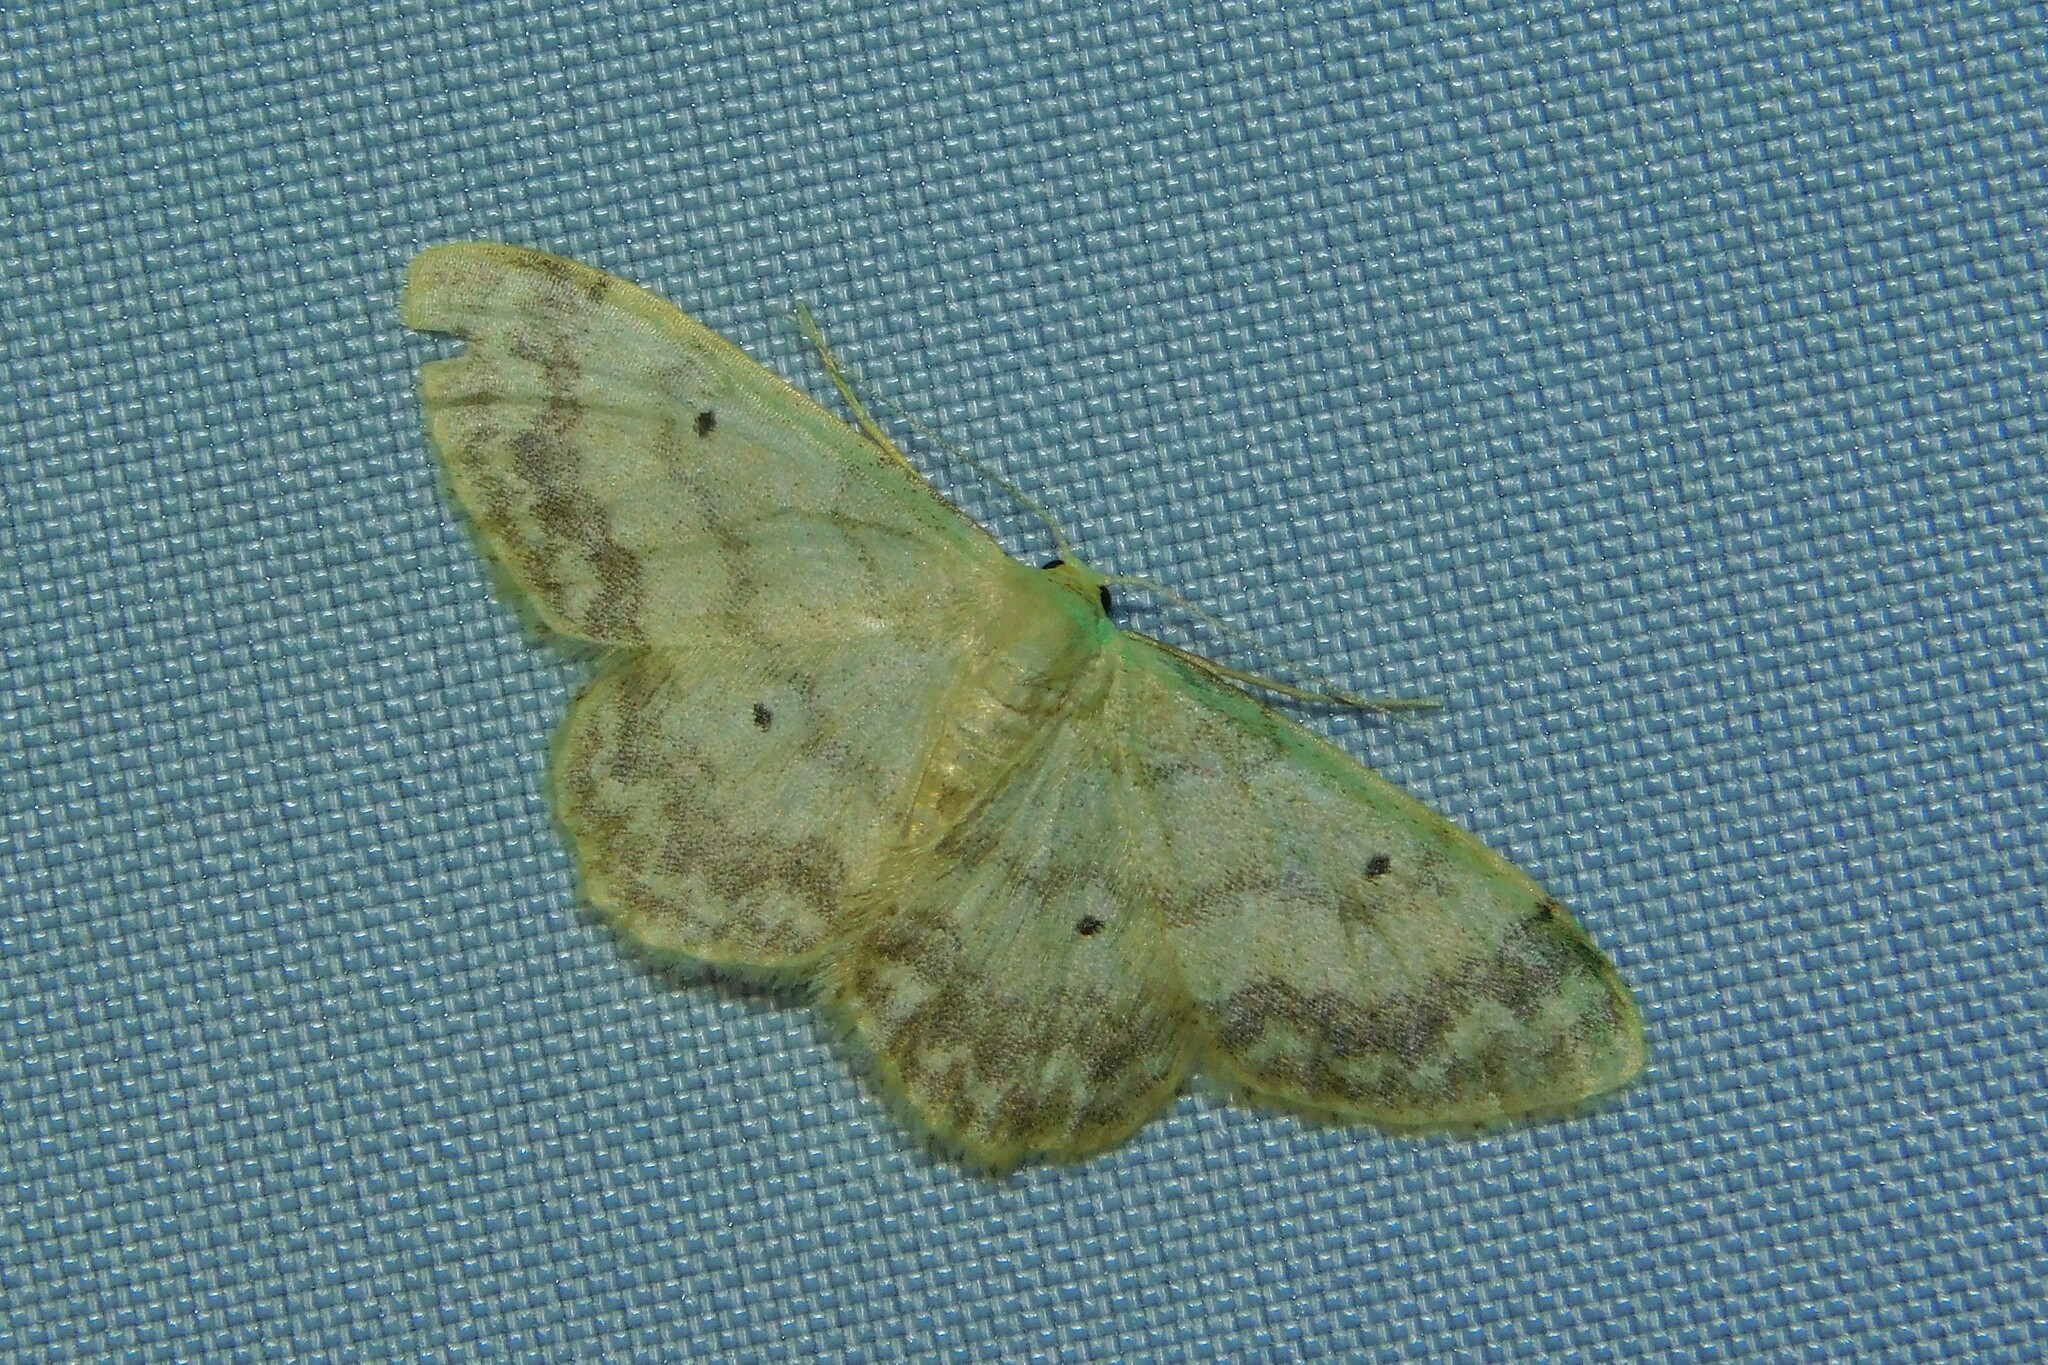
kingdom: Animalia
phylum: Arthropoda
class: Insecta
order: Lepidoptera
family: Geometridae
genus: Idaea
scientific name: Idaea biselata
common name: Small fan-footed wave
